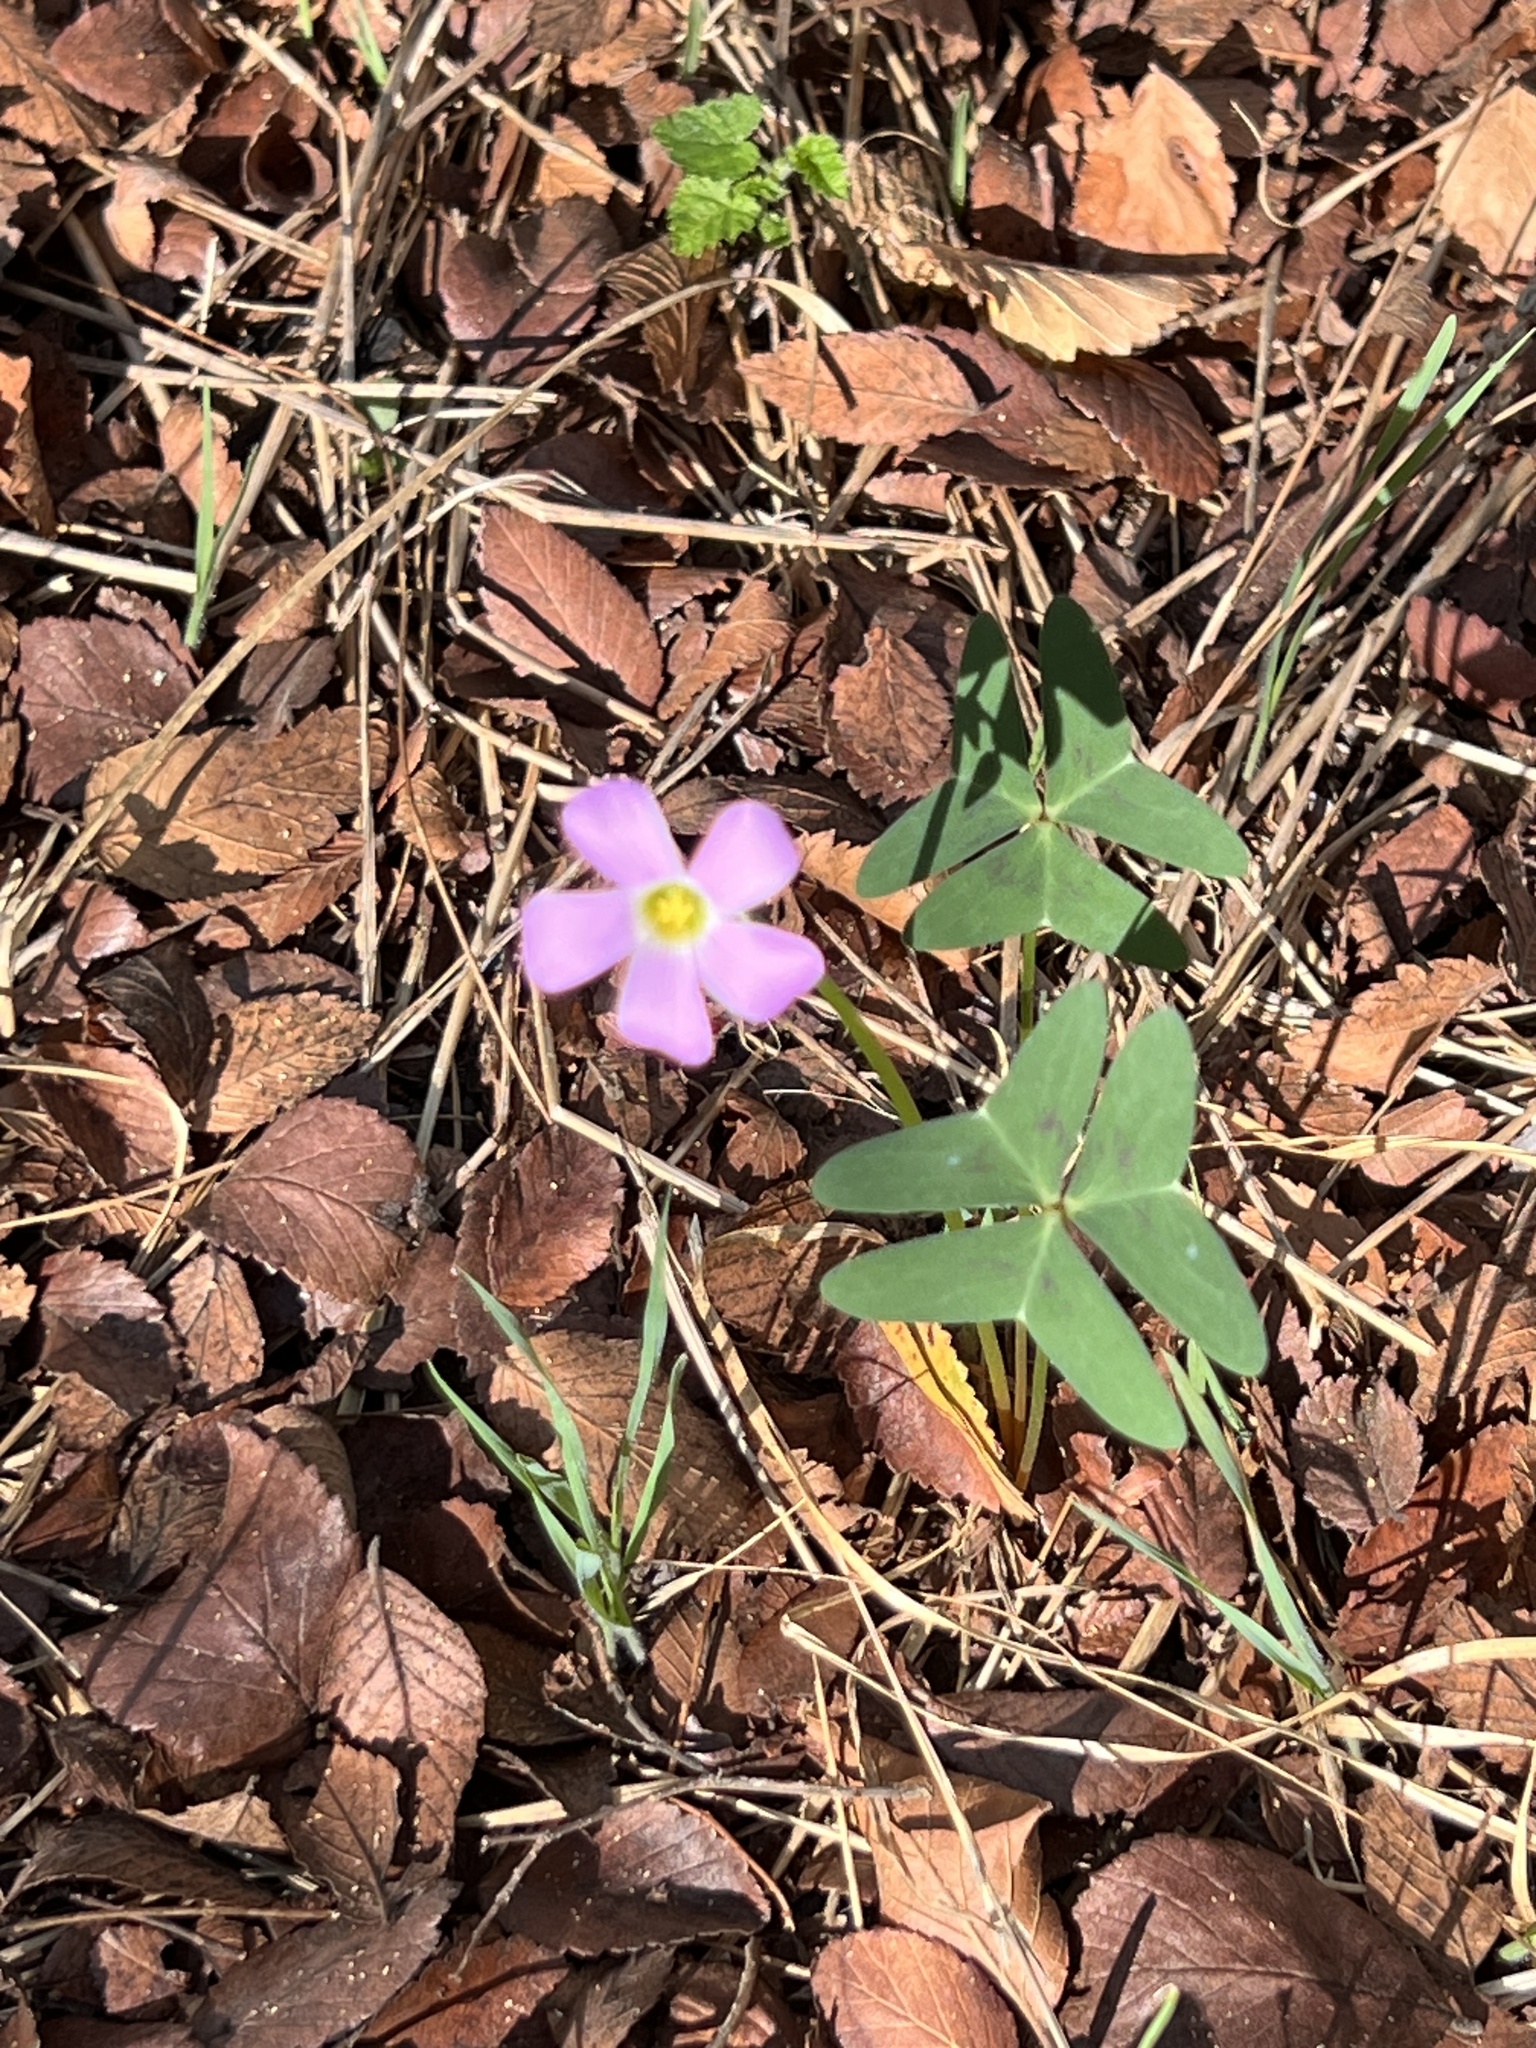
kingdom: Plantae
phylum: Tracheophyta
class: Magnoliopsida
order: Oxalidales
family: Oxalidaceae
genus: Oxalis
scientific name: Oxalis drummondii
